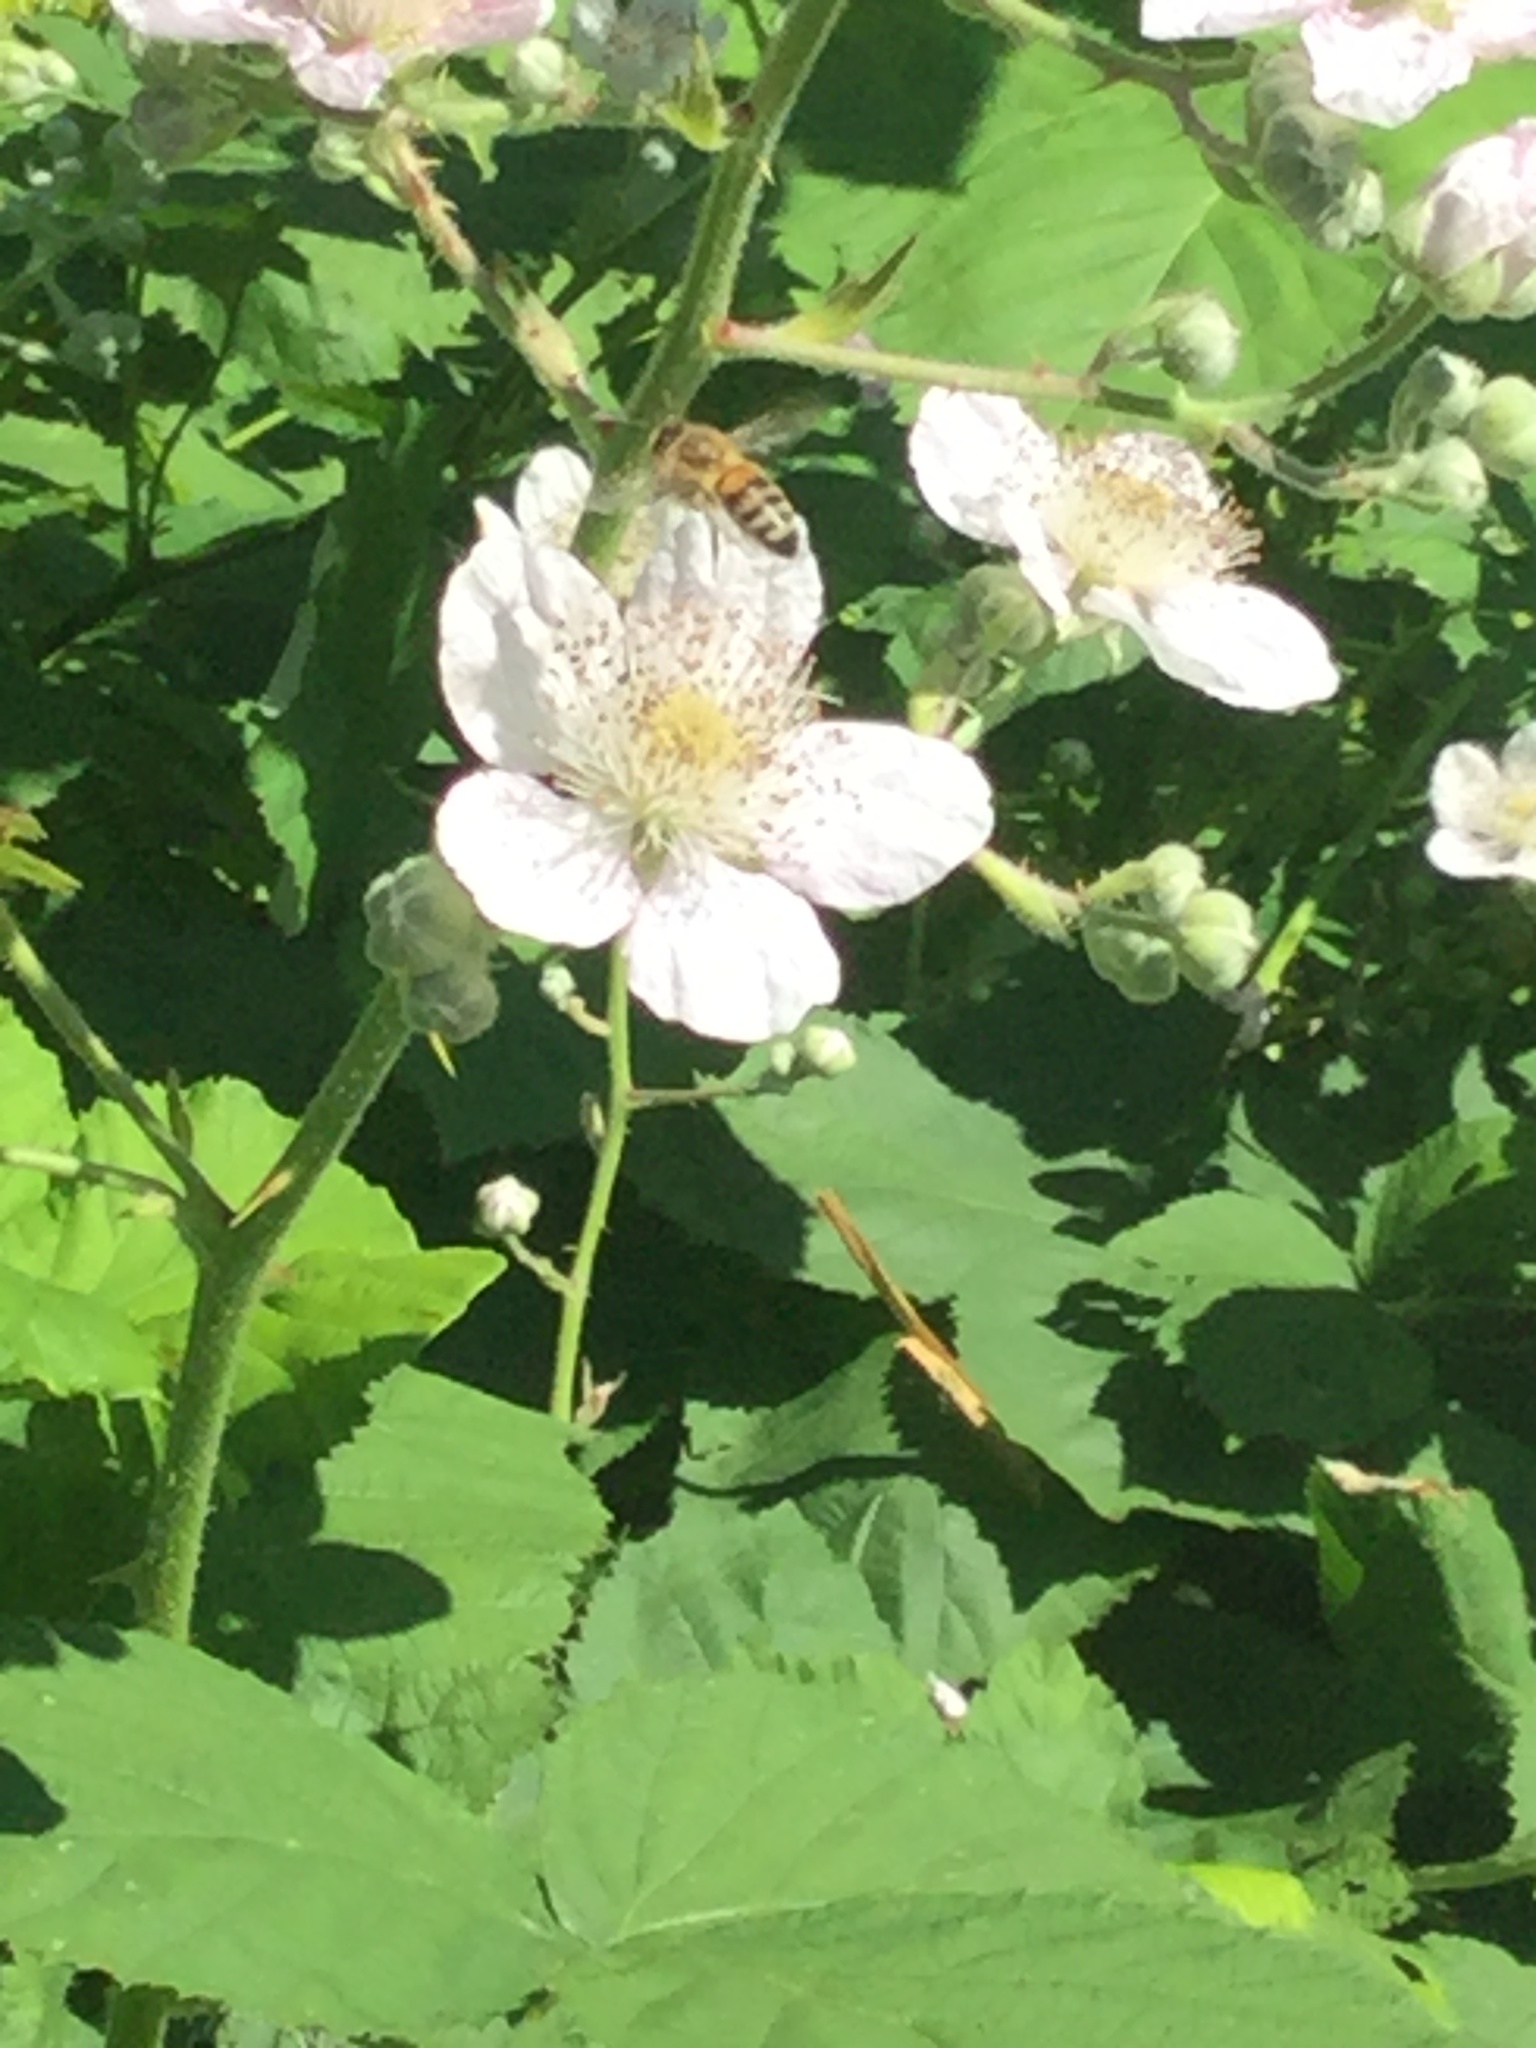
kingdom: Animalia
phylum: Arthropoda
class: Insecta
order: Hymenoptera
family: Apidae
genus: Apis
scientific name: Apis mellifera
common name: Honey bee
